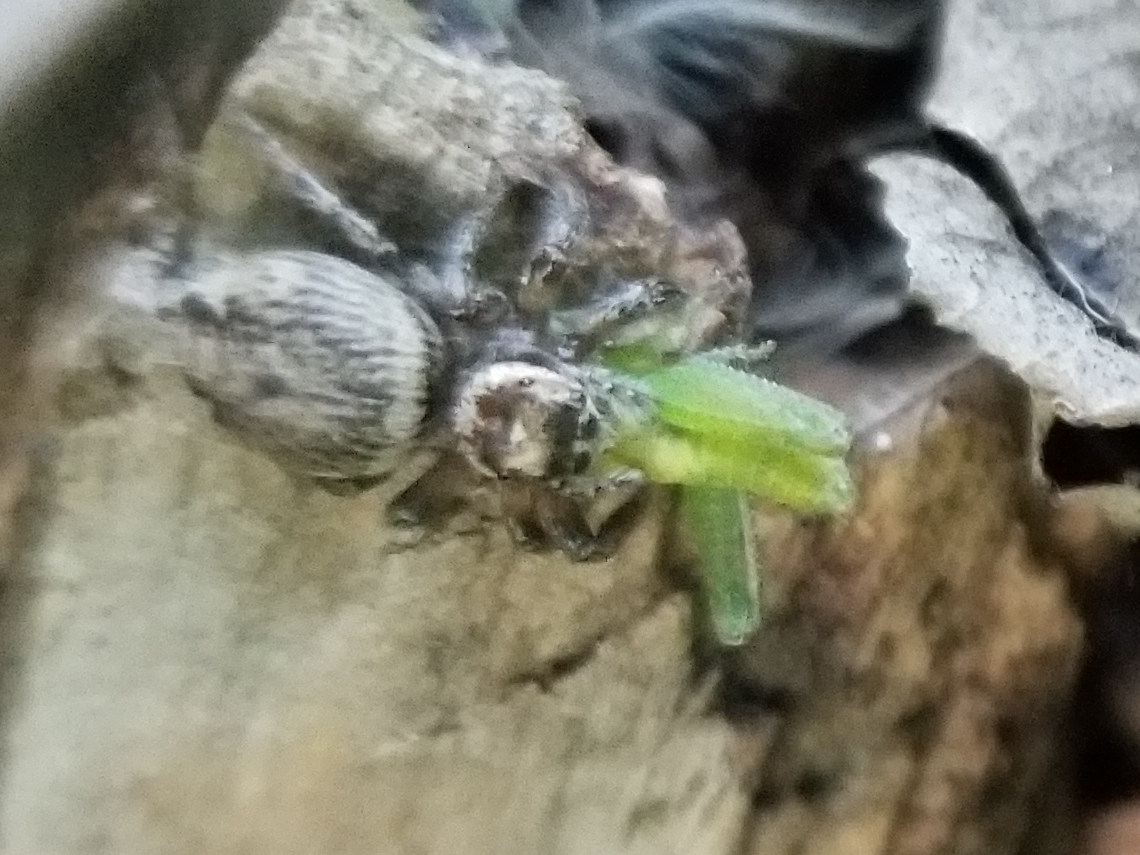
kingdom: Animalia
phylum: Arthropoda
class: Arachnida
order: Araneae
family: Salticidae
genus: Evarcha
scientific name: Evarcha jucunda
